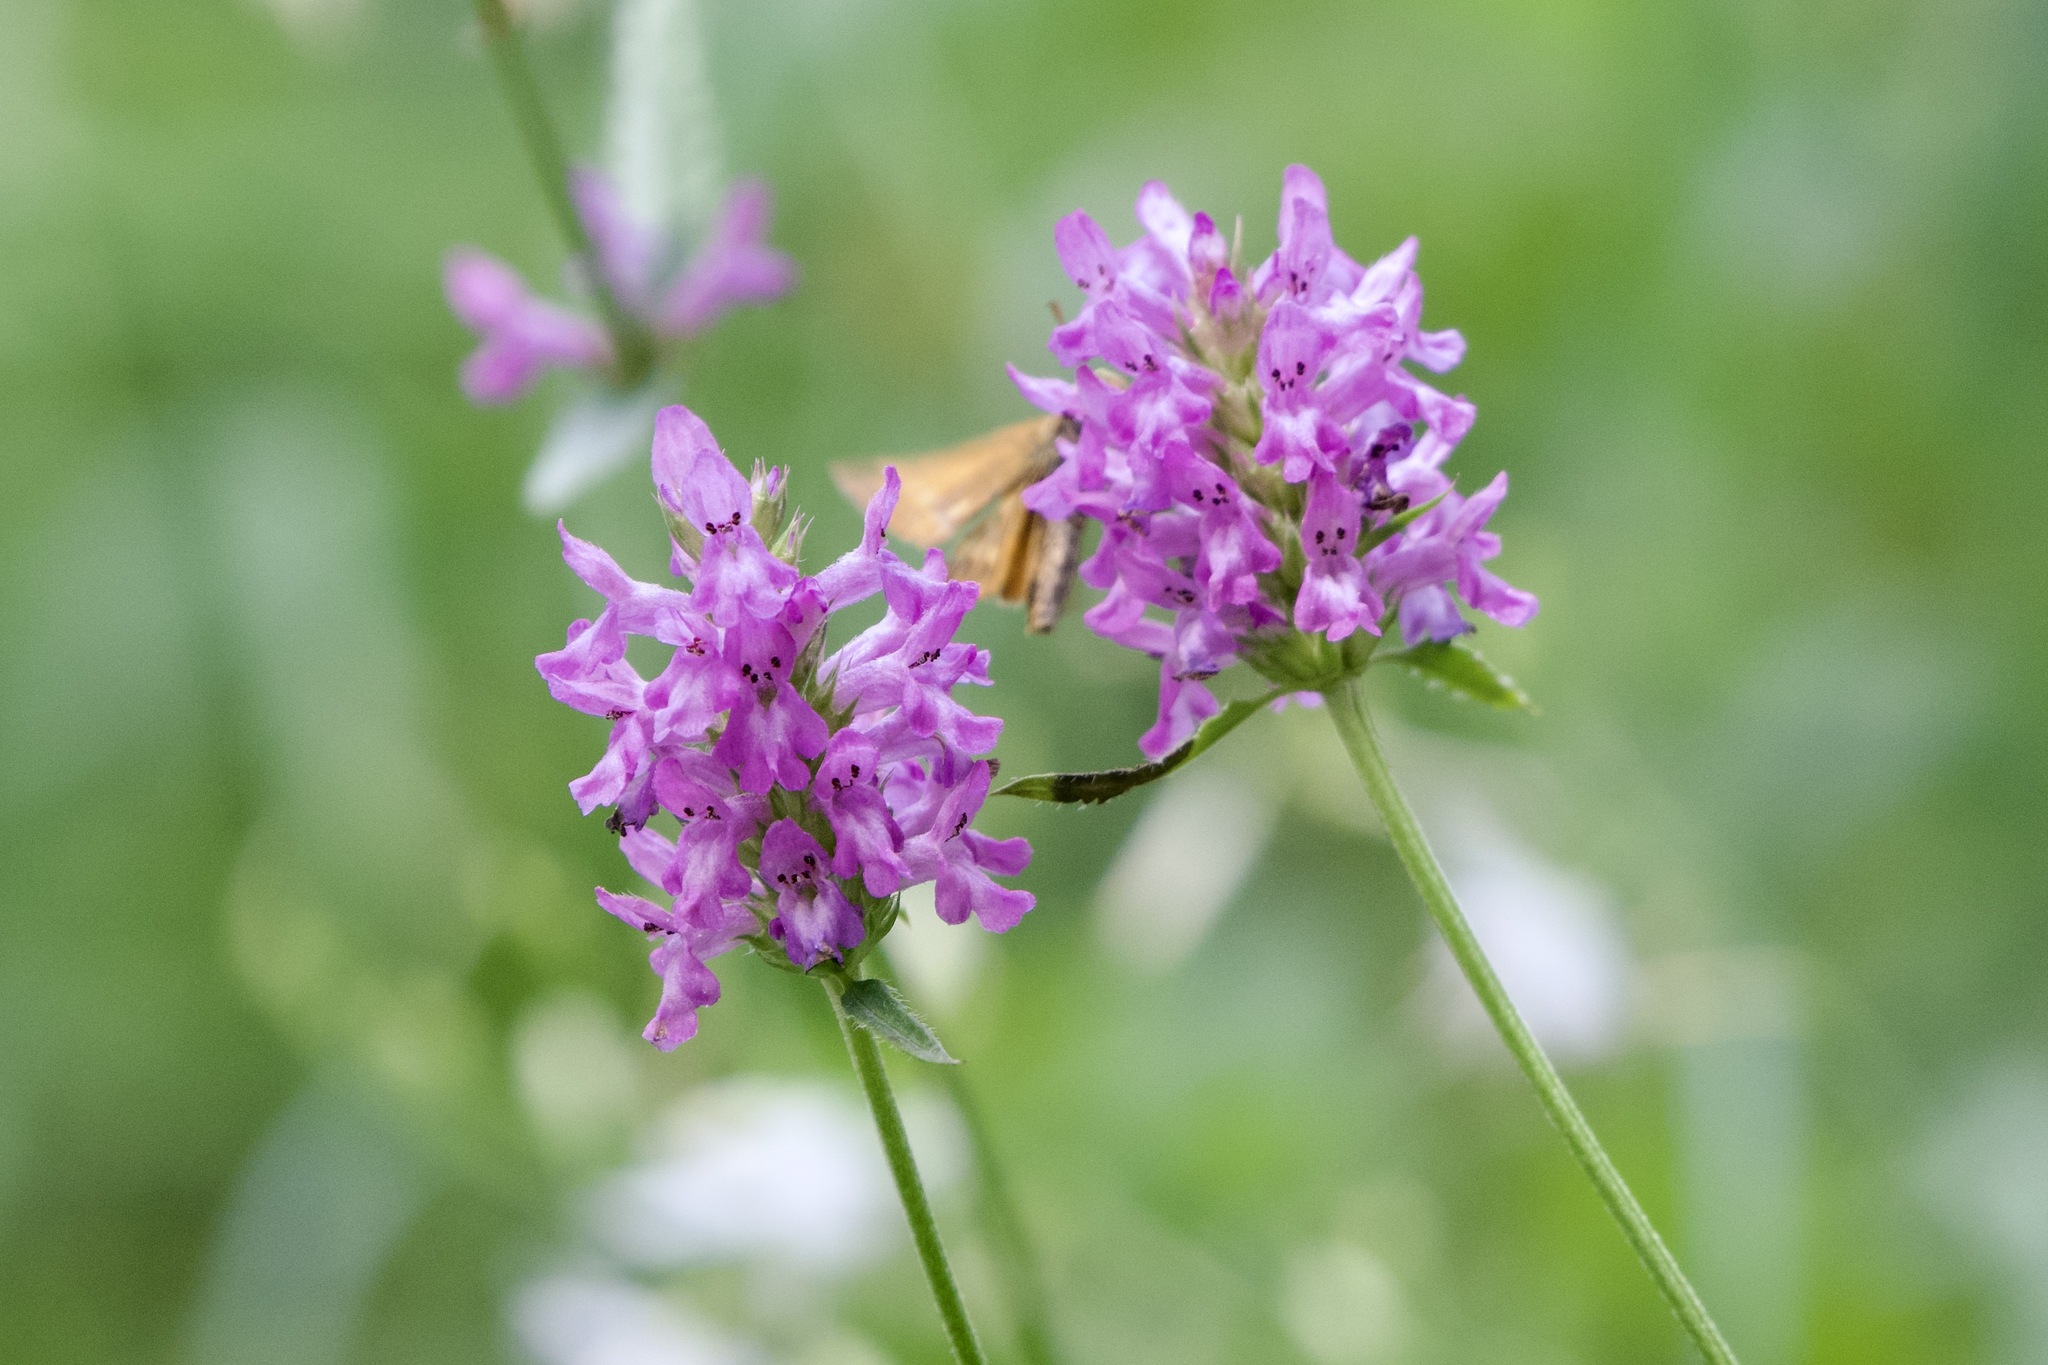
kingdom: Plantae
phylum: Tracheophyta
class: Magnoliopsida
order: Lamiales
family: Lamiaceae
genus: Betonica
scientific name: Betonica officinalis
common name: Bishop's-wort
